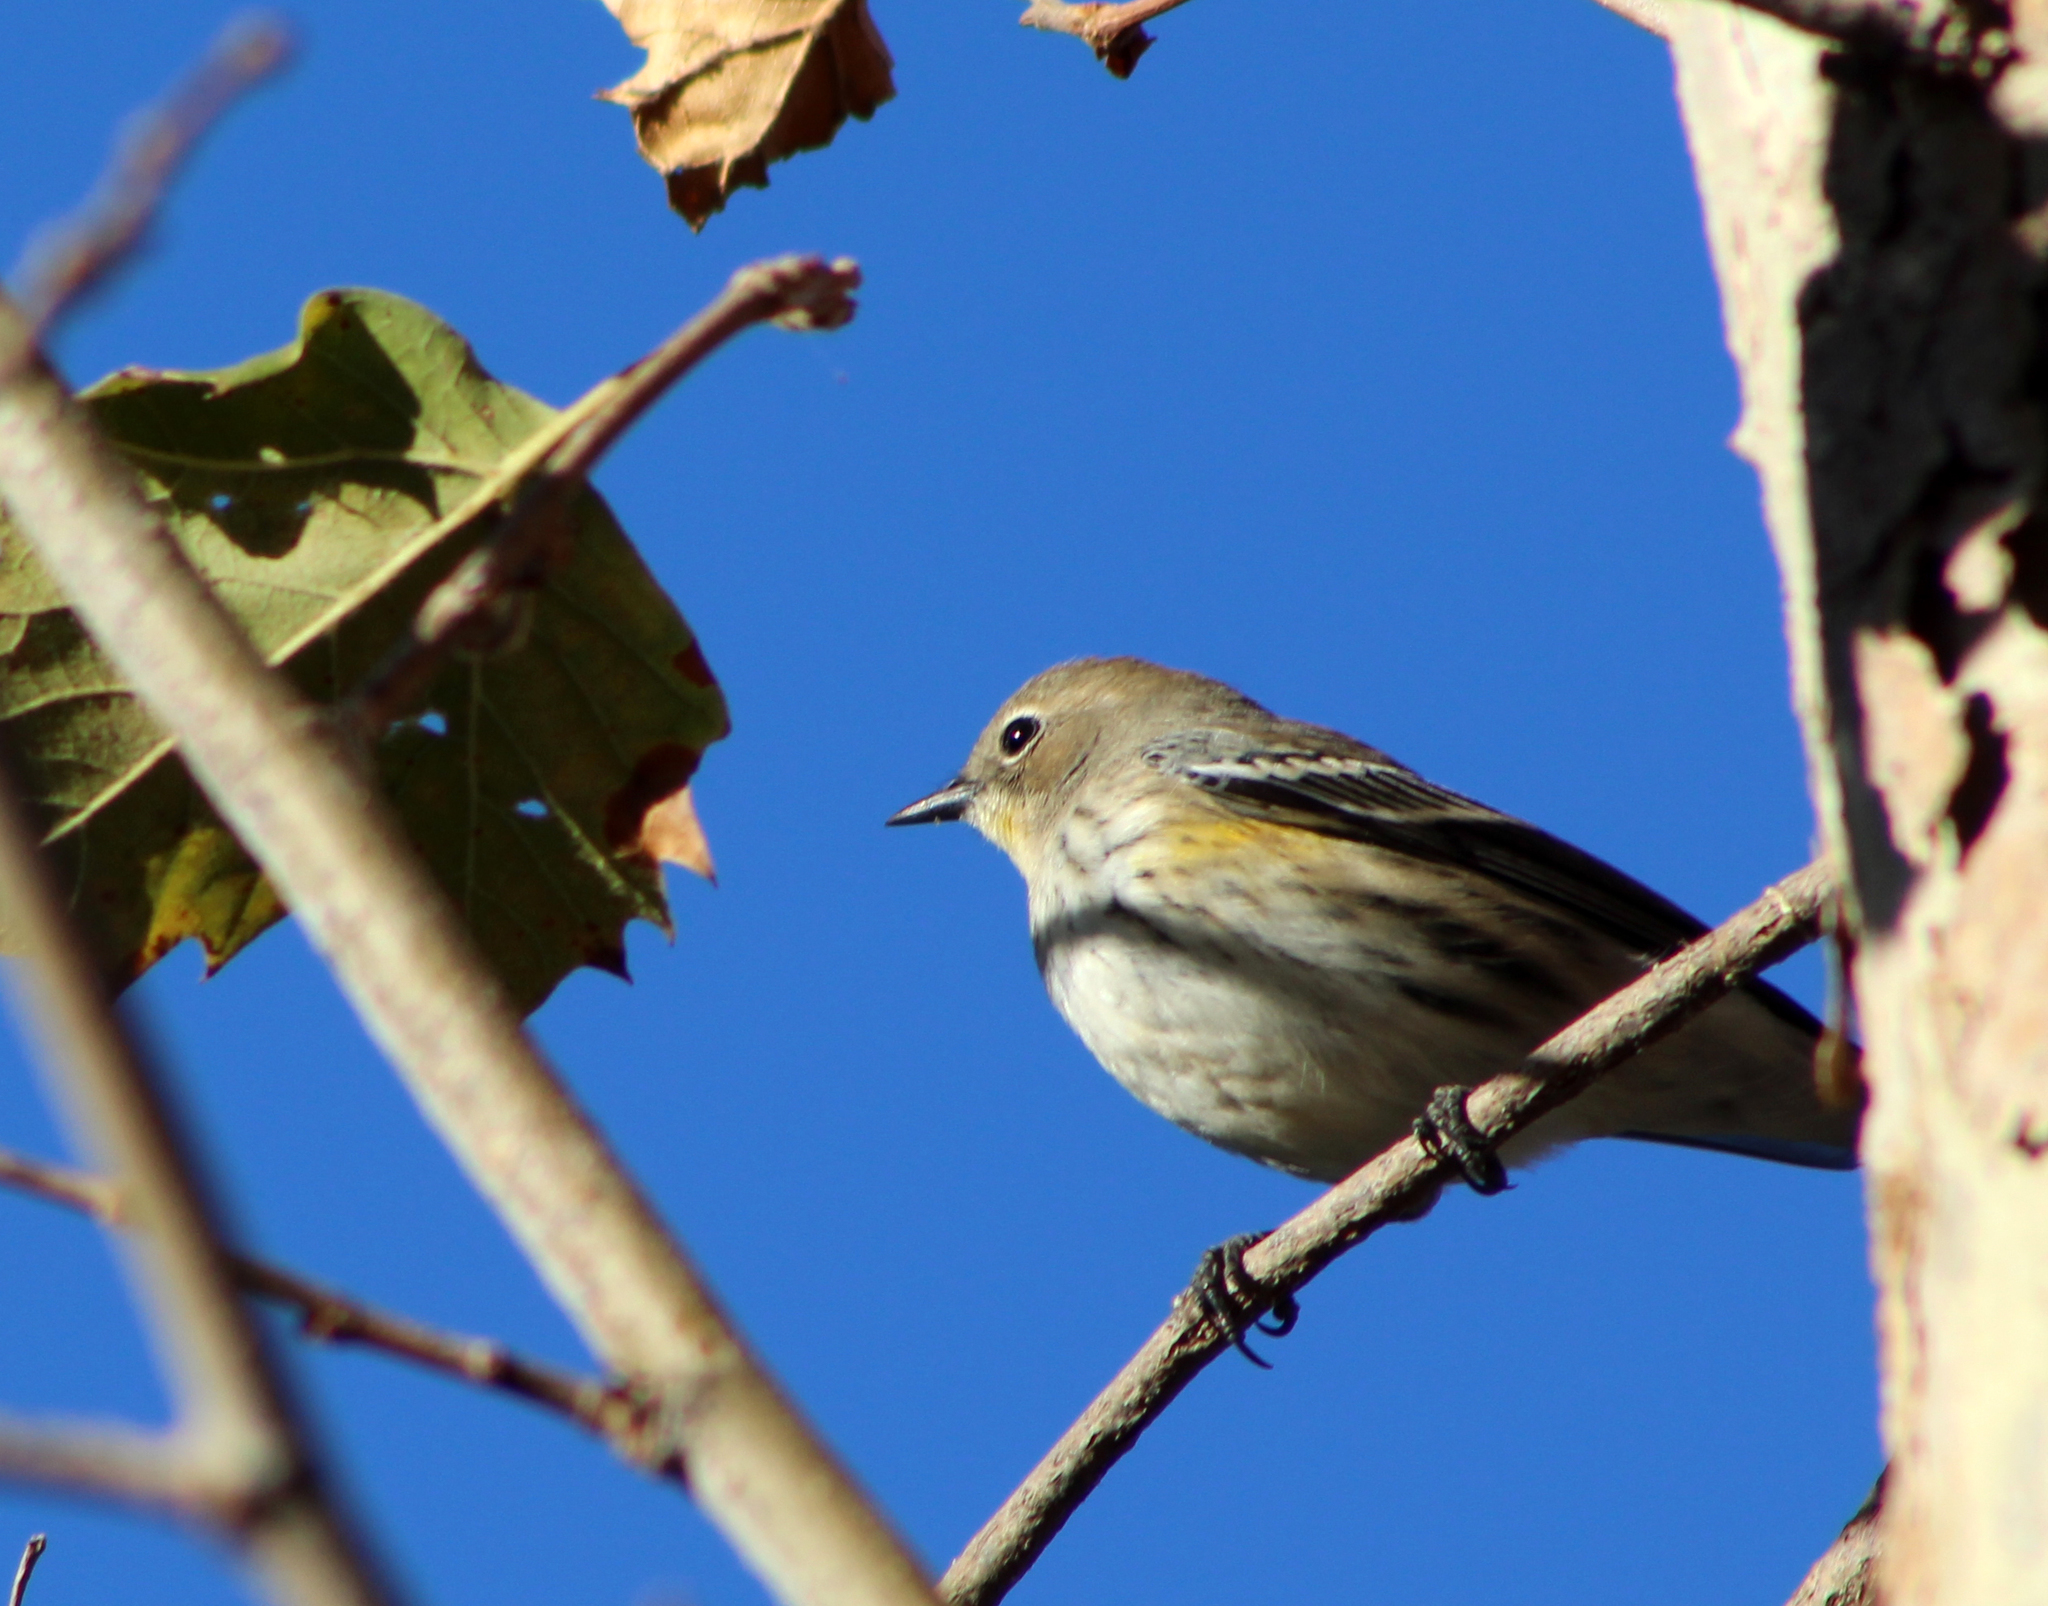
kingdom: Animalia
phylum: Chordata
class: Aves
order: Passeriformes
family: Parulidae
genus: Setophaga
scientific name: Setophaga coronata
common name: Myrtle warbler
